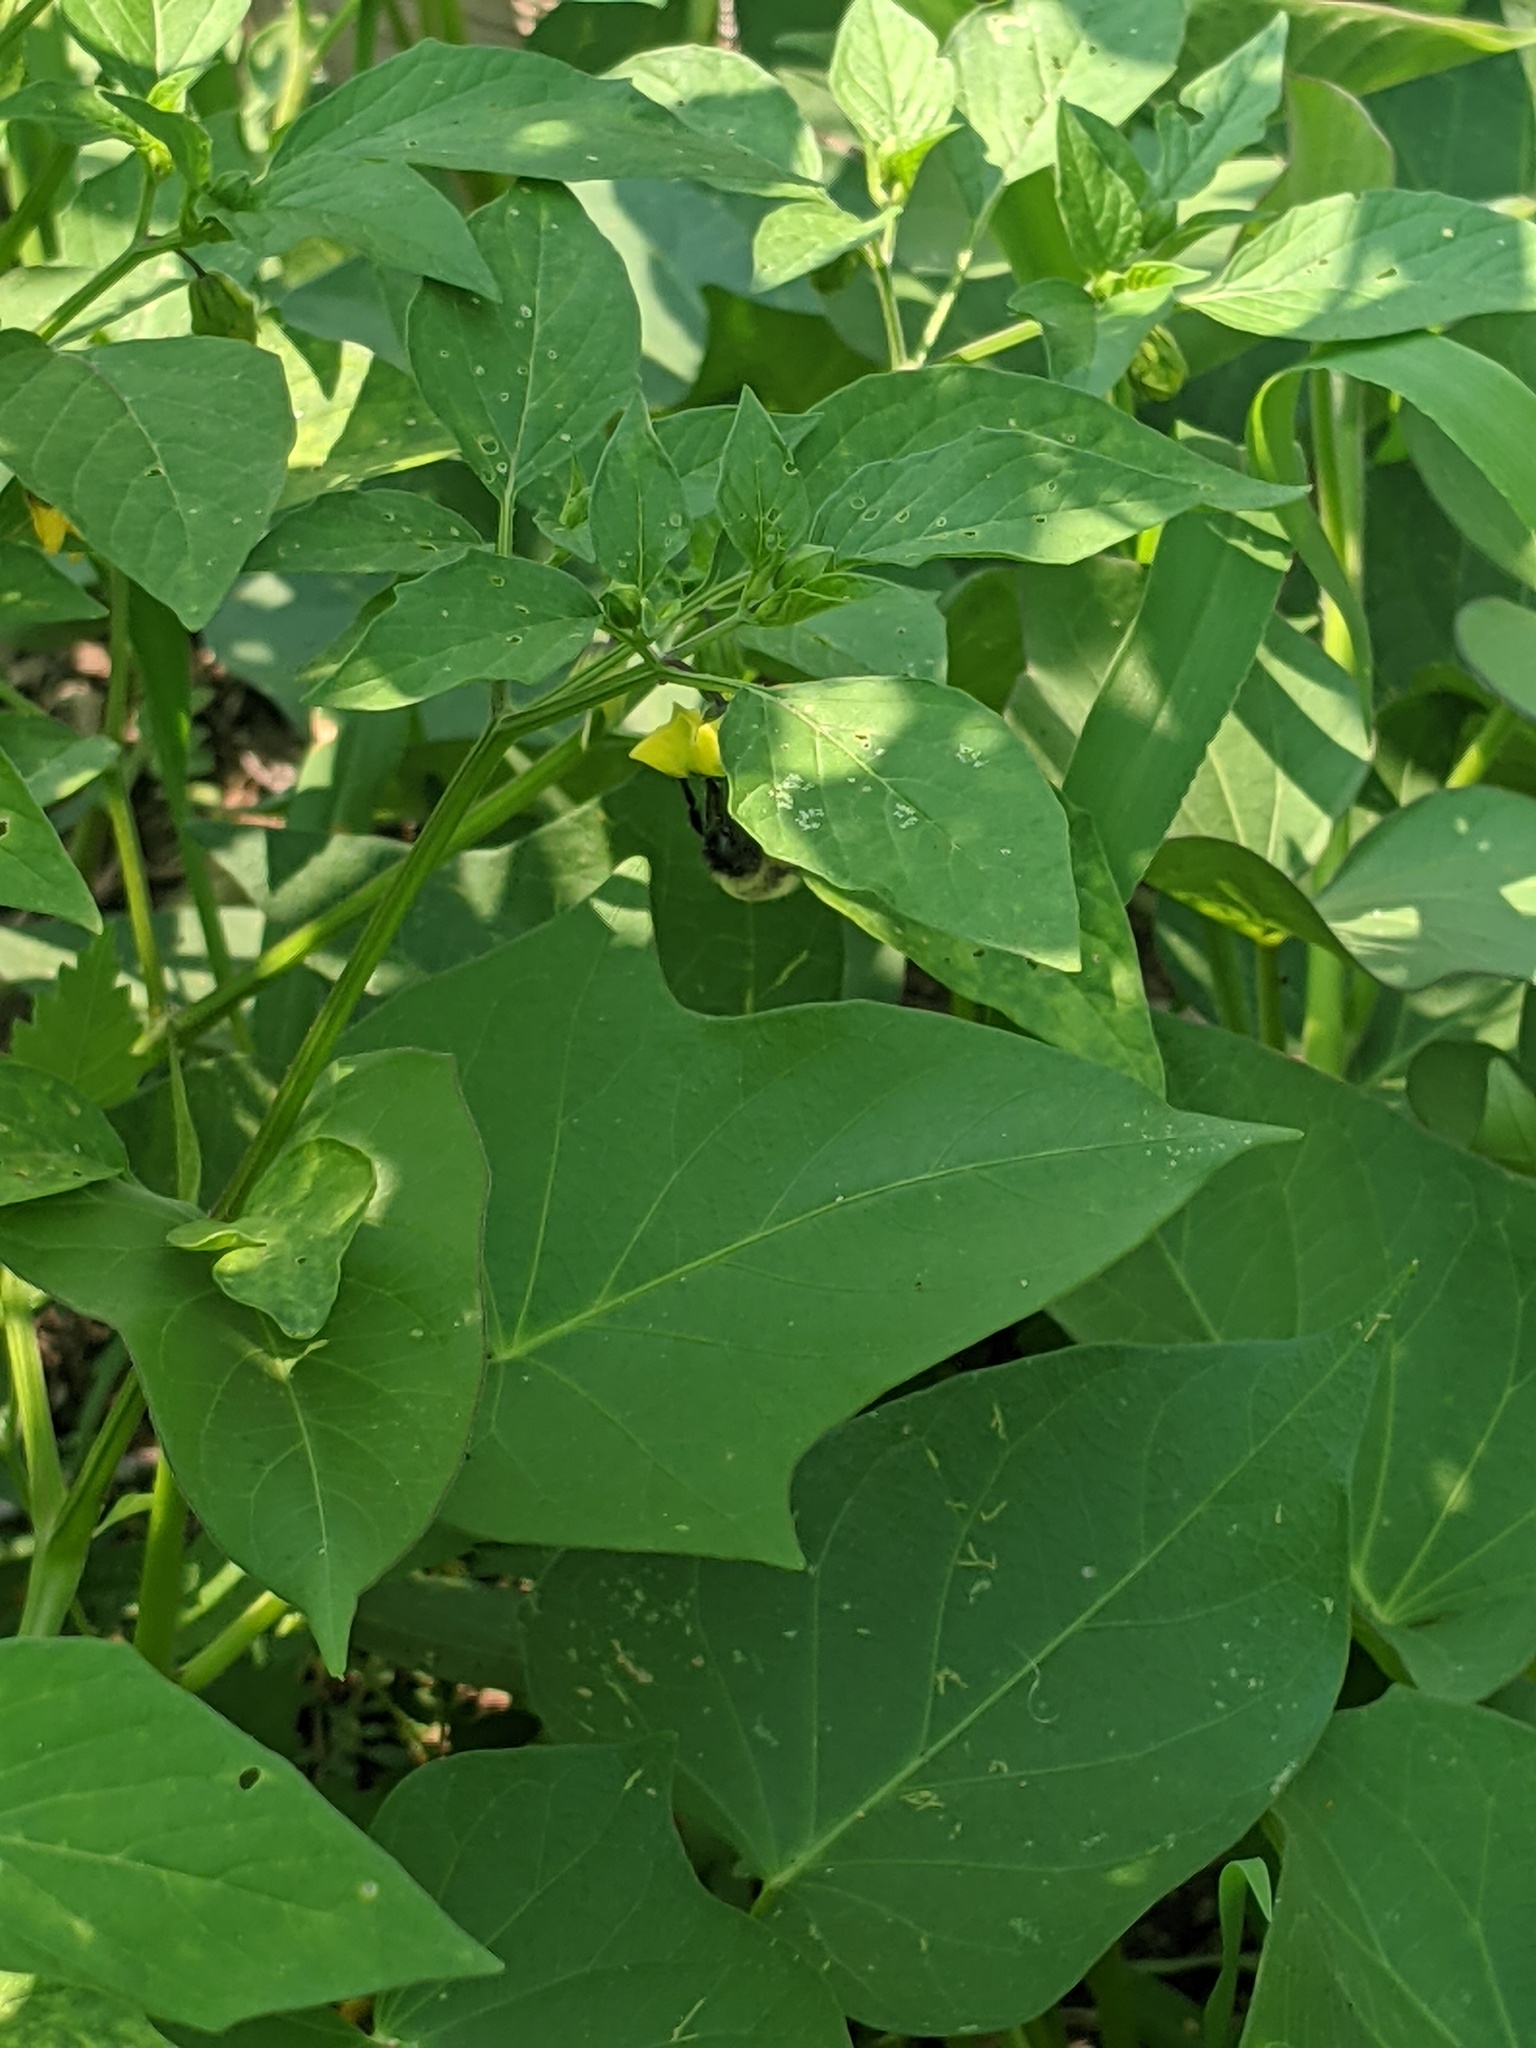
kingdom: Animalia
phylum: Arthropoda
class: Insecta
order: Hymenoptera
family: Apidae
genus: Bombus
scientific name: Bombus impatiens
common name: Common eastern bumble bee
